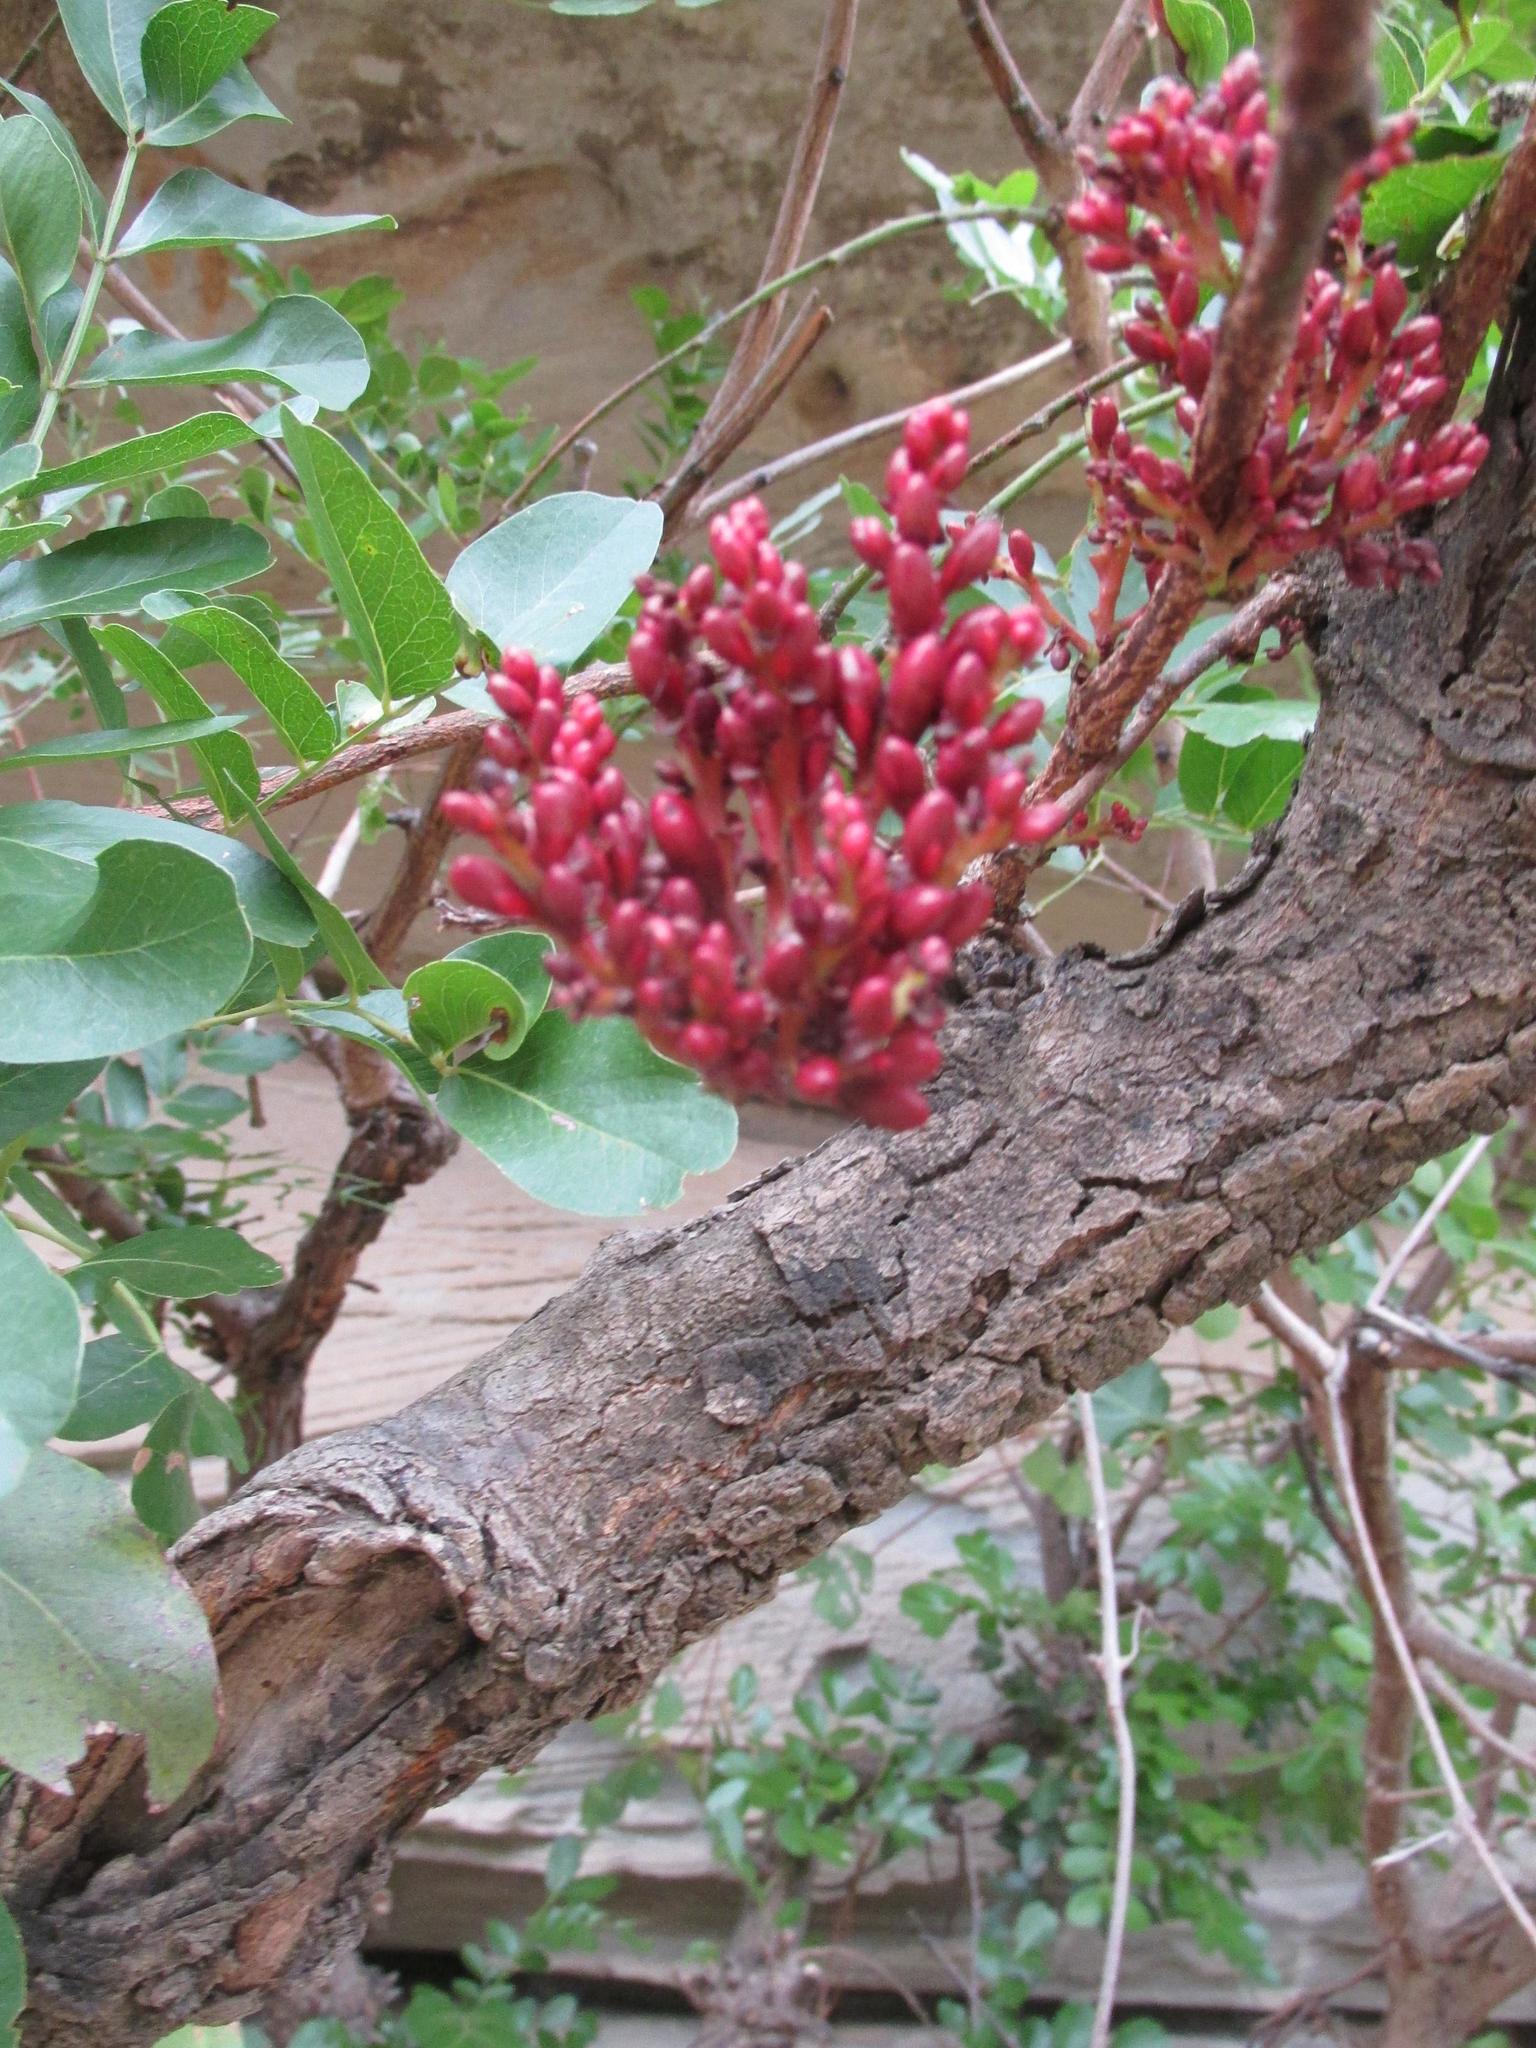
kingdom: Plantae
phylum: Tracheophyta
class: Magnoliopsida
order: Fabales
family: Fabaceae
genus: Schotia
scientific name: Schotia brachypetala
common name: Weeping boer-bean
